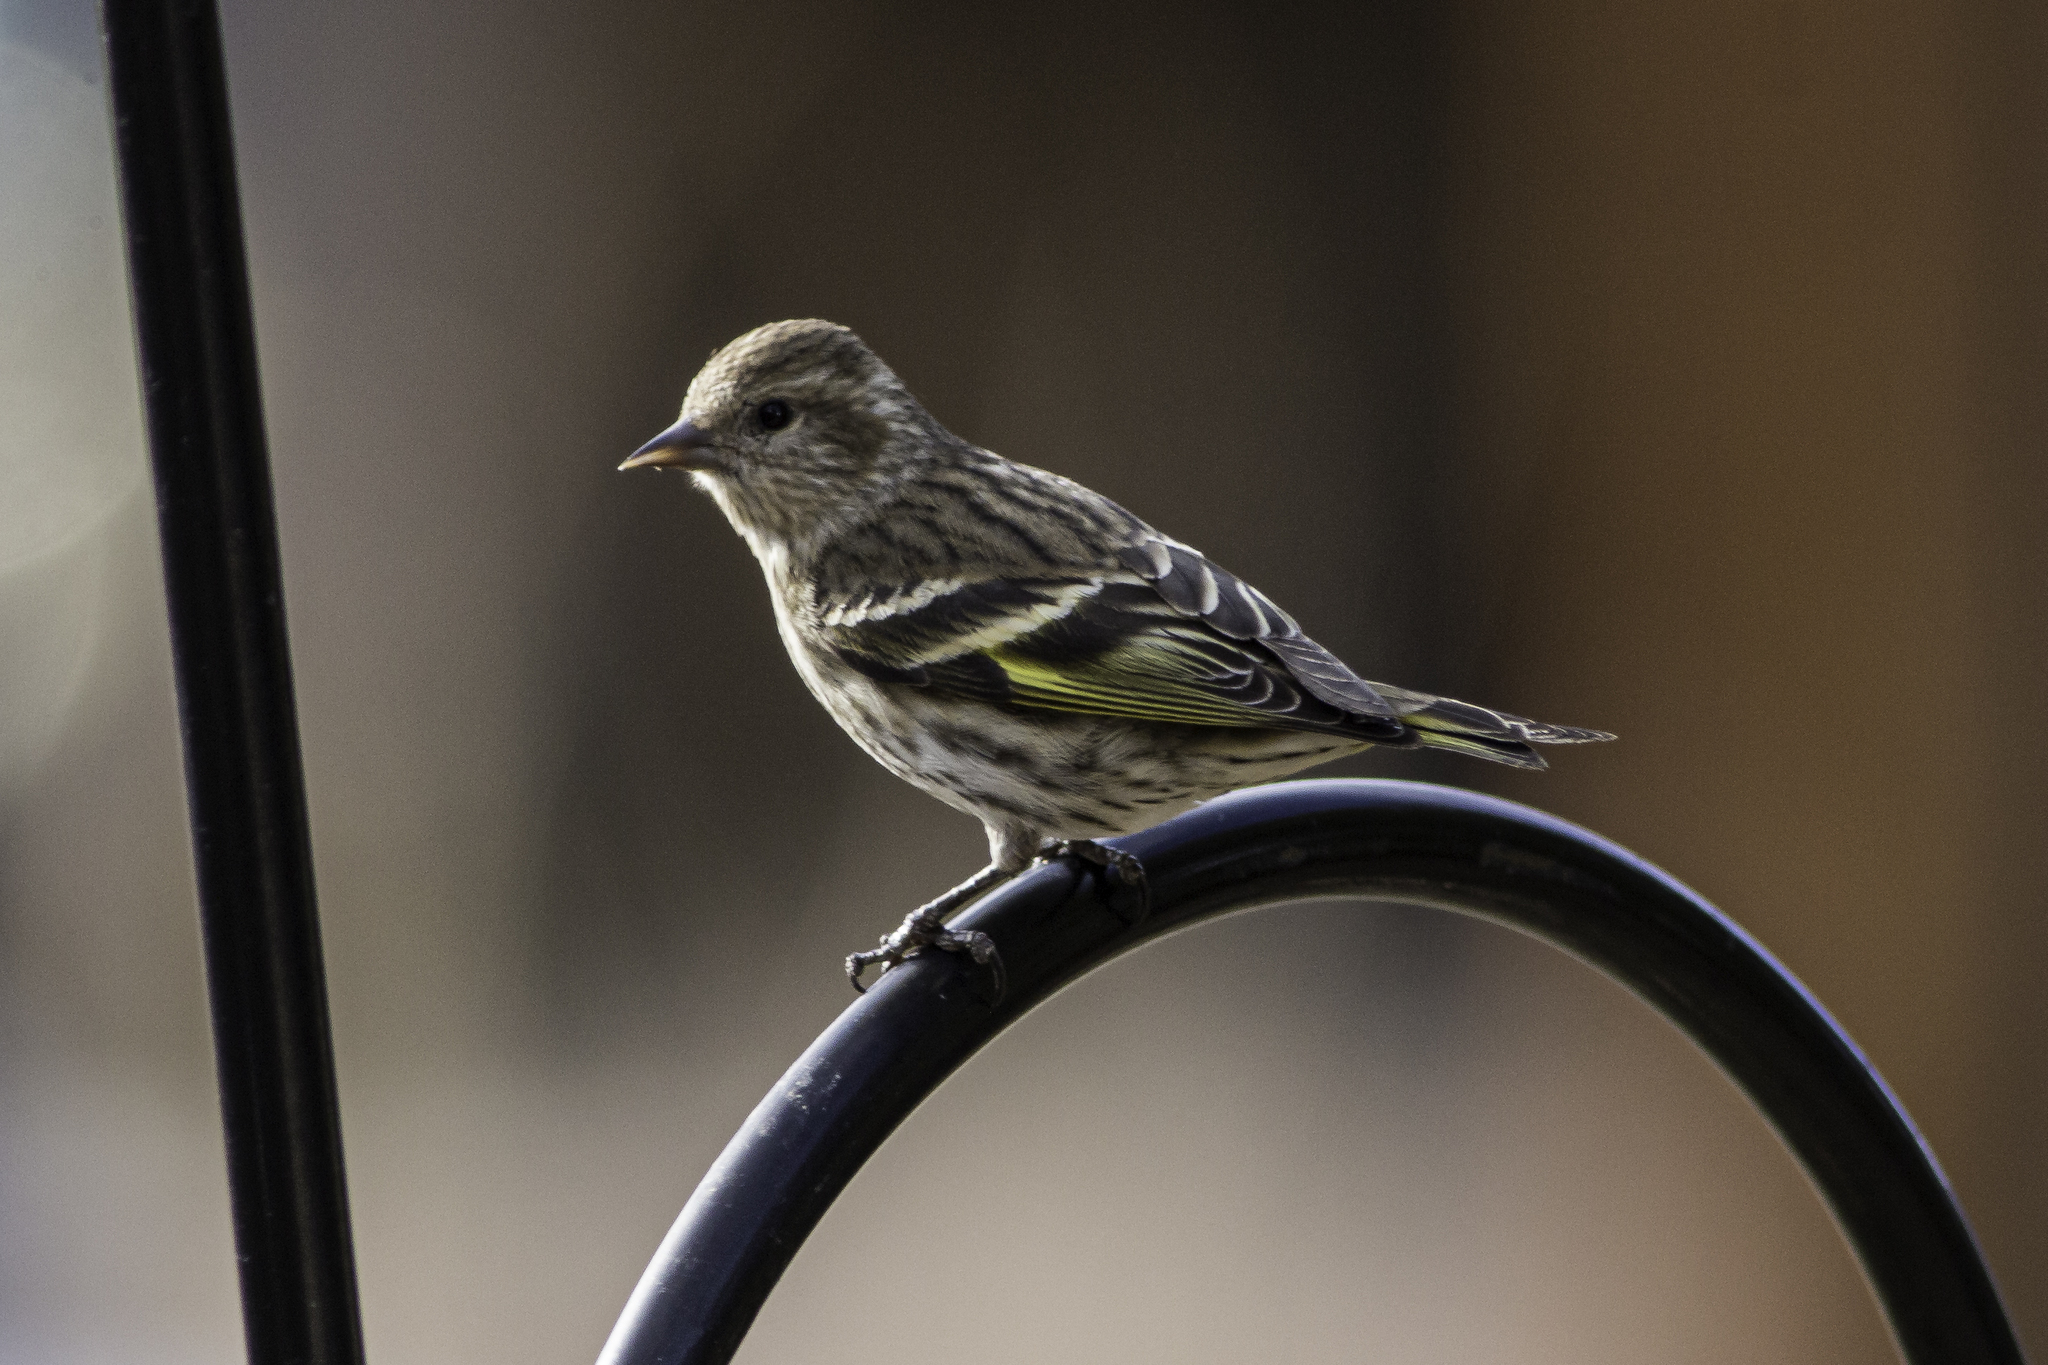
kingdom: Animalia
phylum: Chordata
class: Aves
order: Passeriformes
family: Fringillidae
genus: Spinus
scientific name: Spinus pinus
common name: Pine siskin
